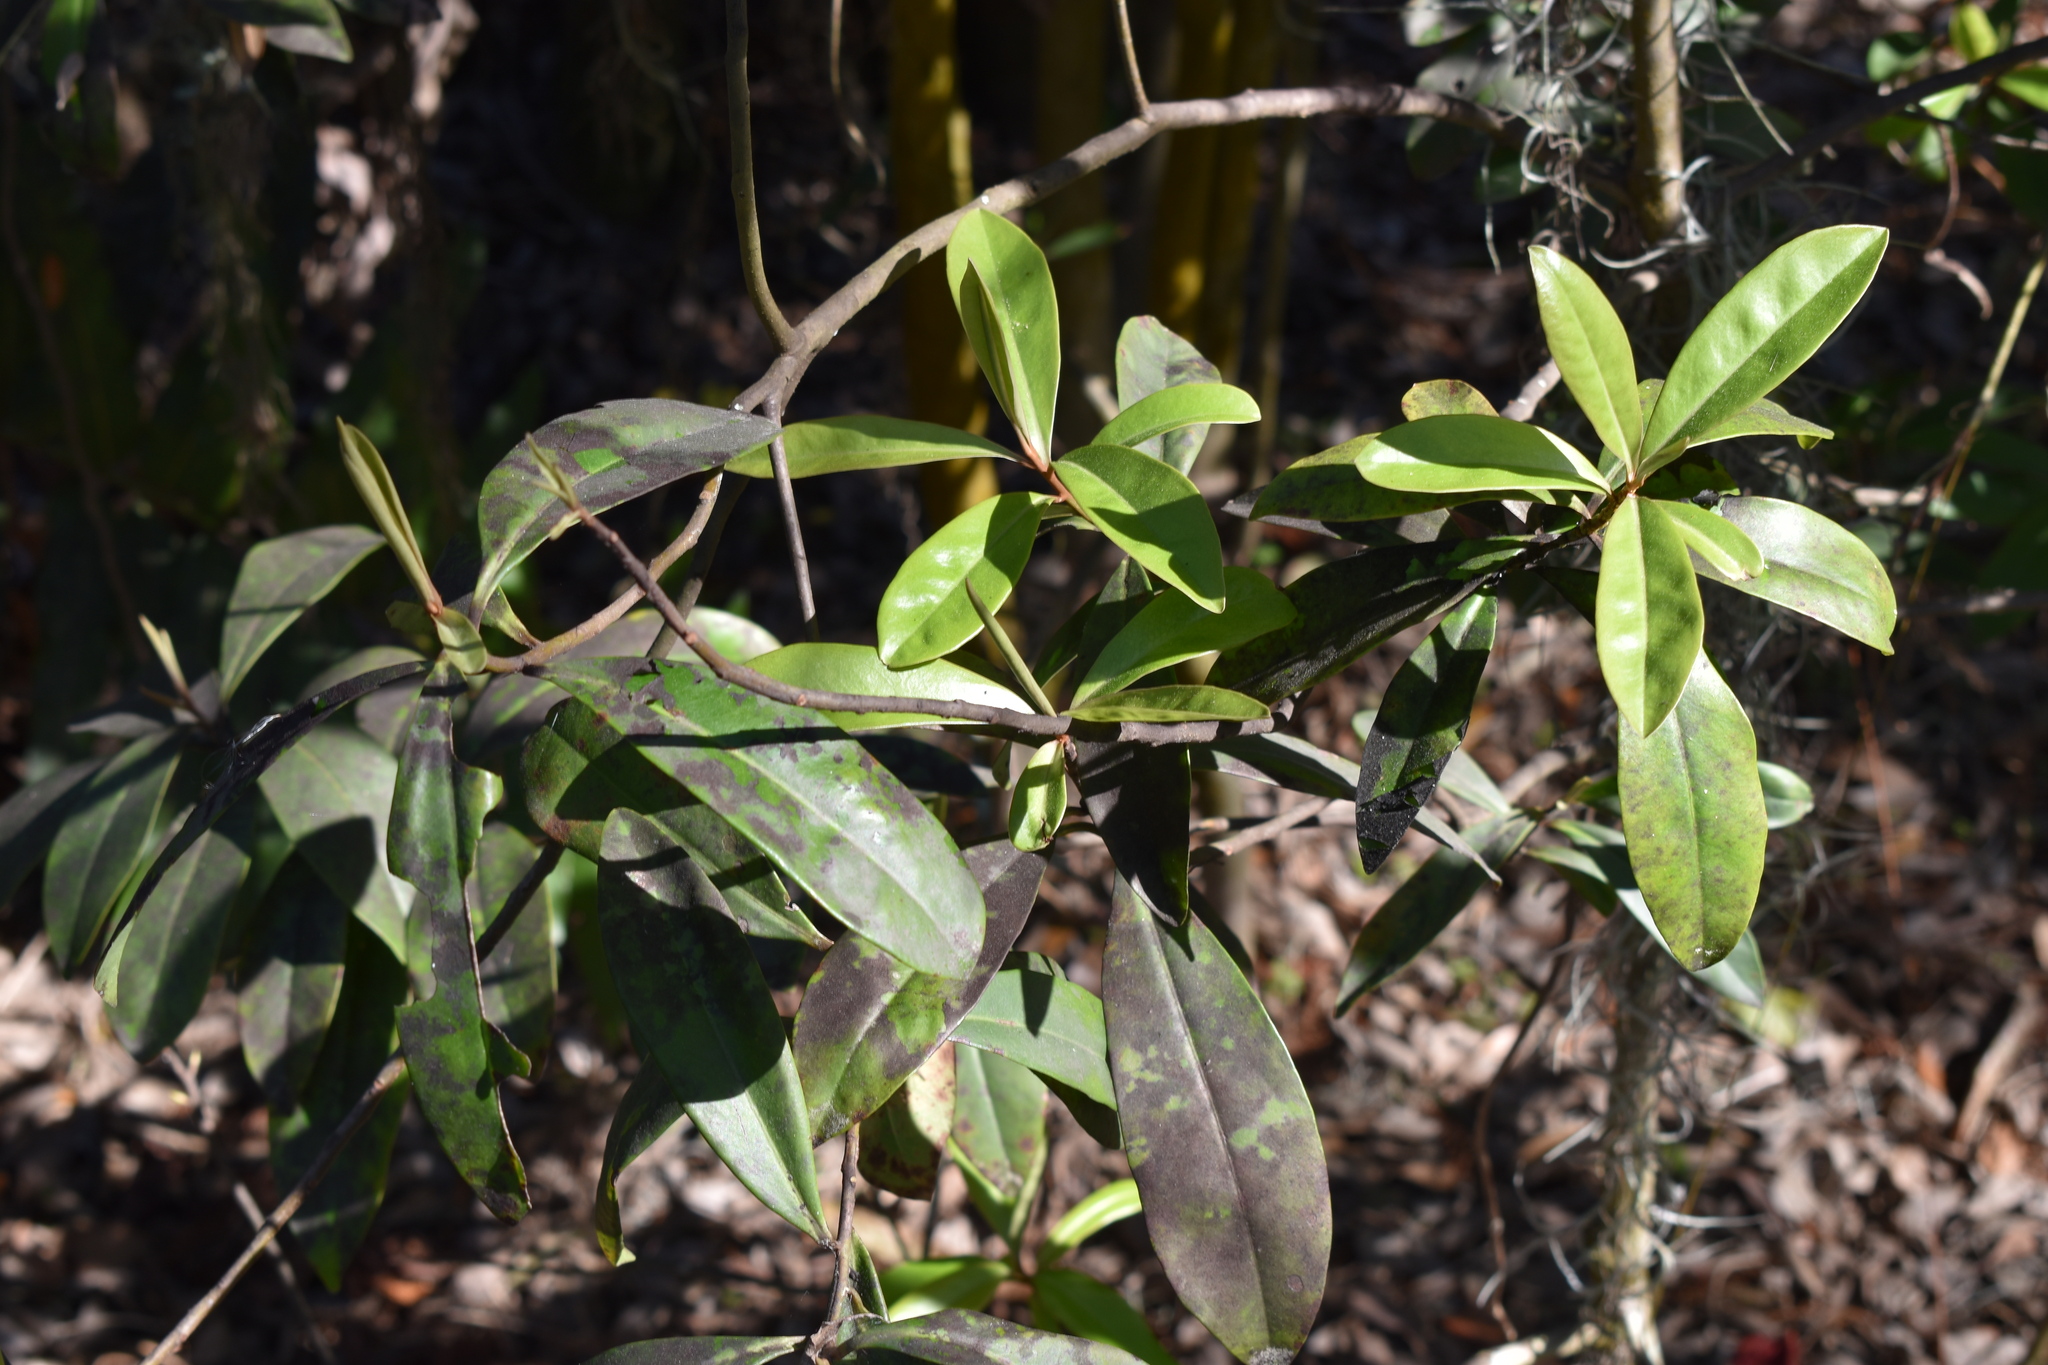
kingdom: Plantae
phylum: Tracheophyta
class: Magnoliopsida
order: Ericales
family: Primulaceae
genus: Ardisia
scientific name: Ardisia escallonioides
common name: Island marlberry
